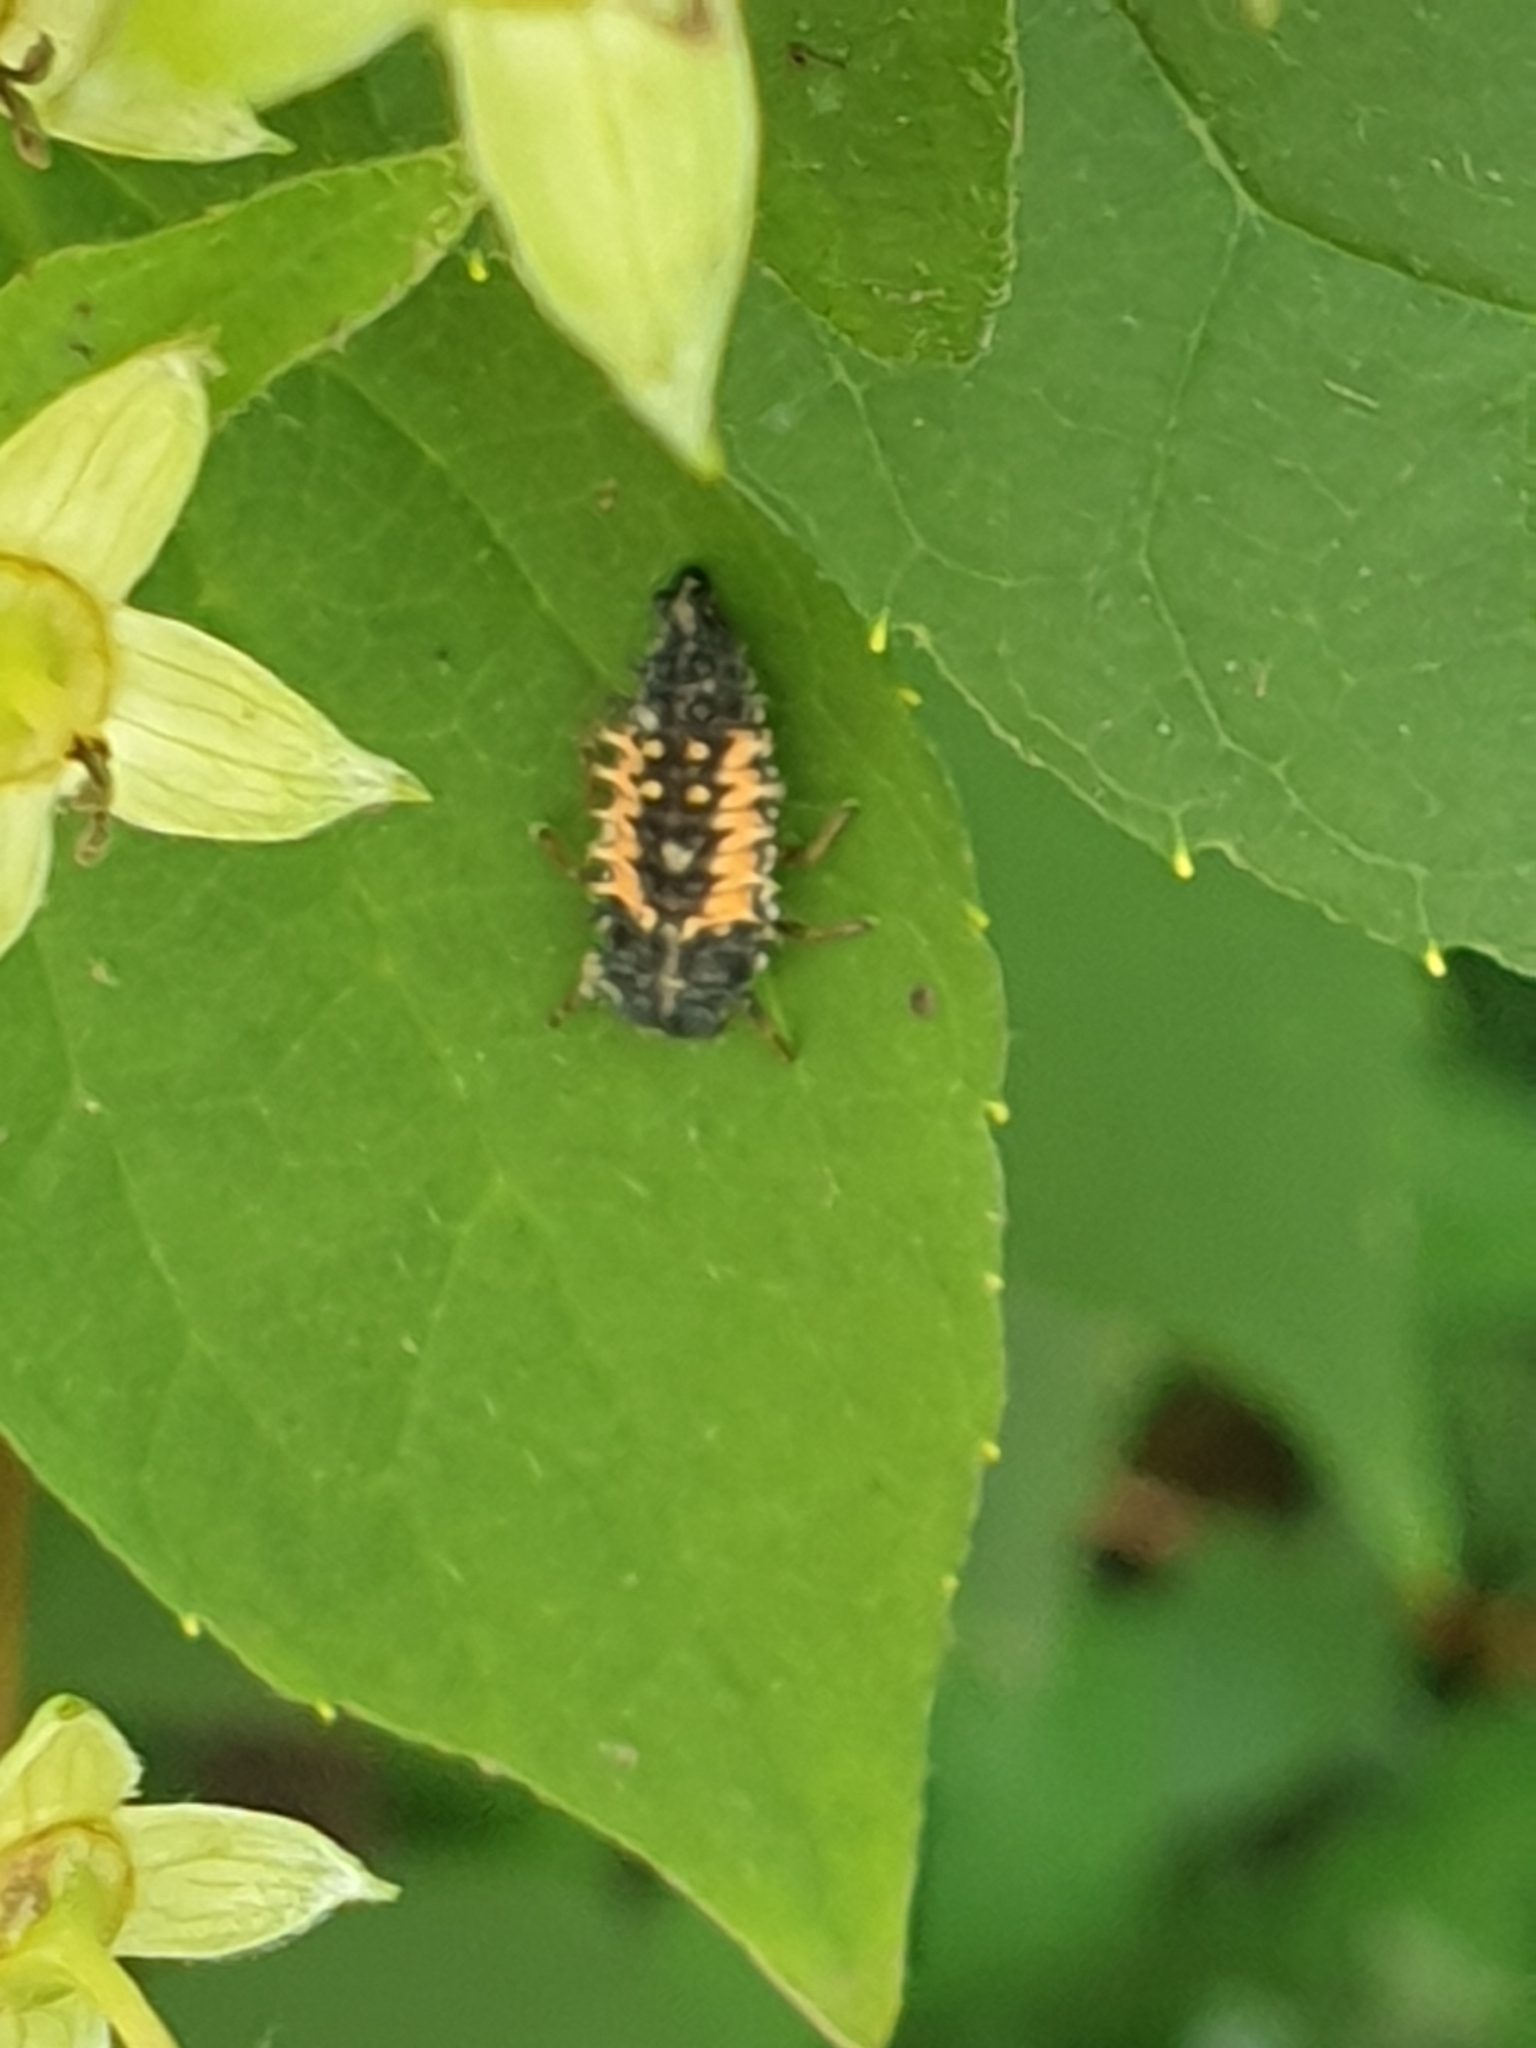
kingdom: Animalia
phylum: Arthropoda
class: Insecta
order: Coleoptera
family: Coccinellidae
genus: Harmonia
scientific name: Harmonia axyridis
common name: Harlequin ladybird
